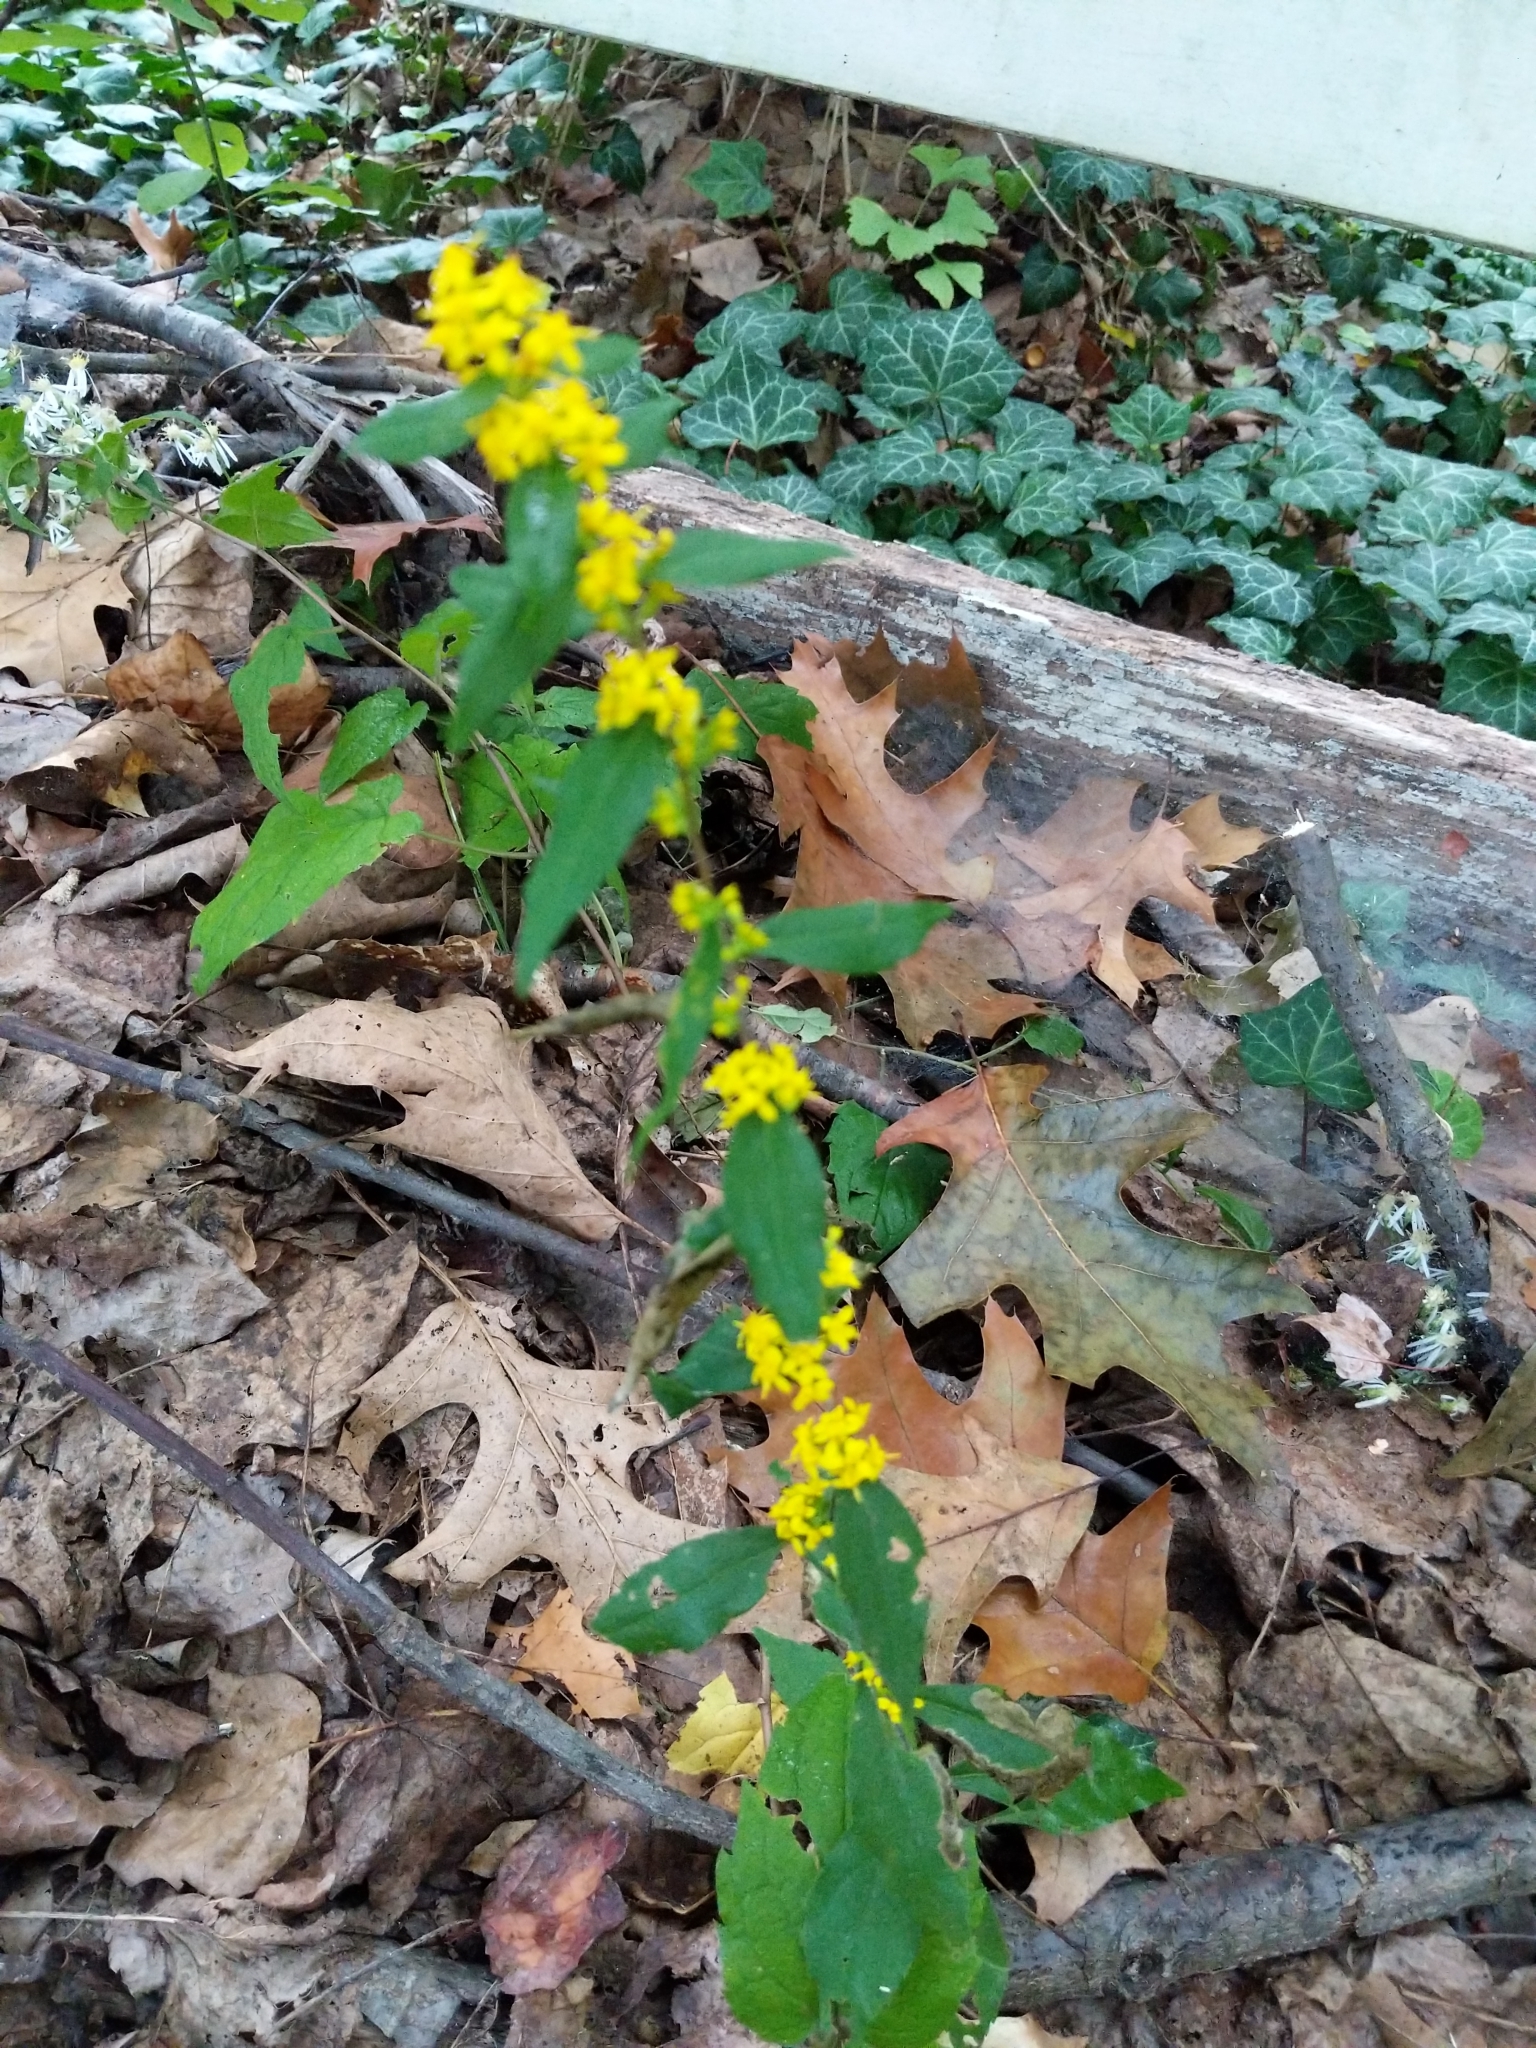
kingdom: Plantae
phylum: Tracheophyta
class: Magnoliopsida
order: Asterales
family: Asteraceae
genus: Solidago
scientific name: Solidago caesia
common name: Woodland goldenrod
